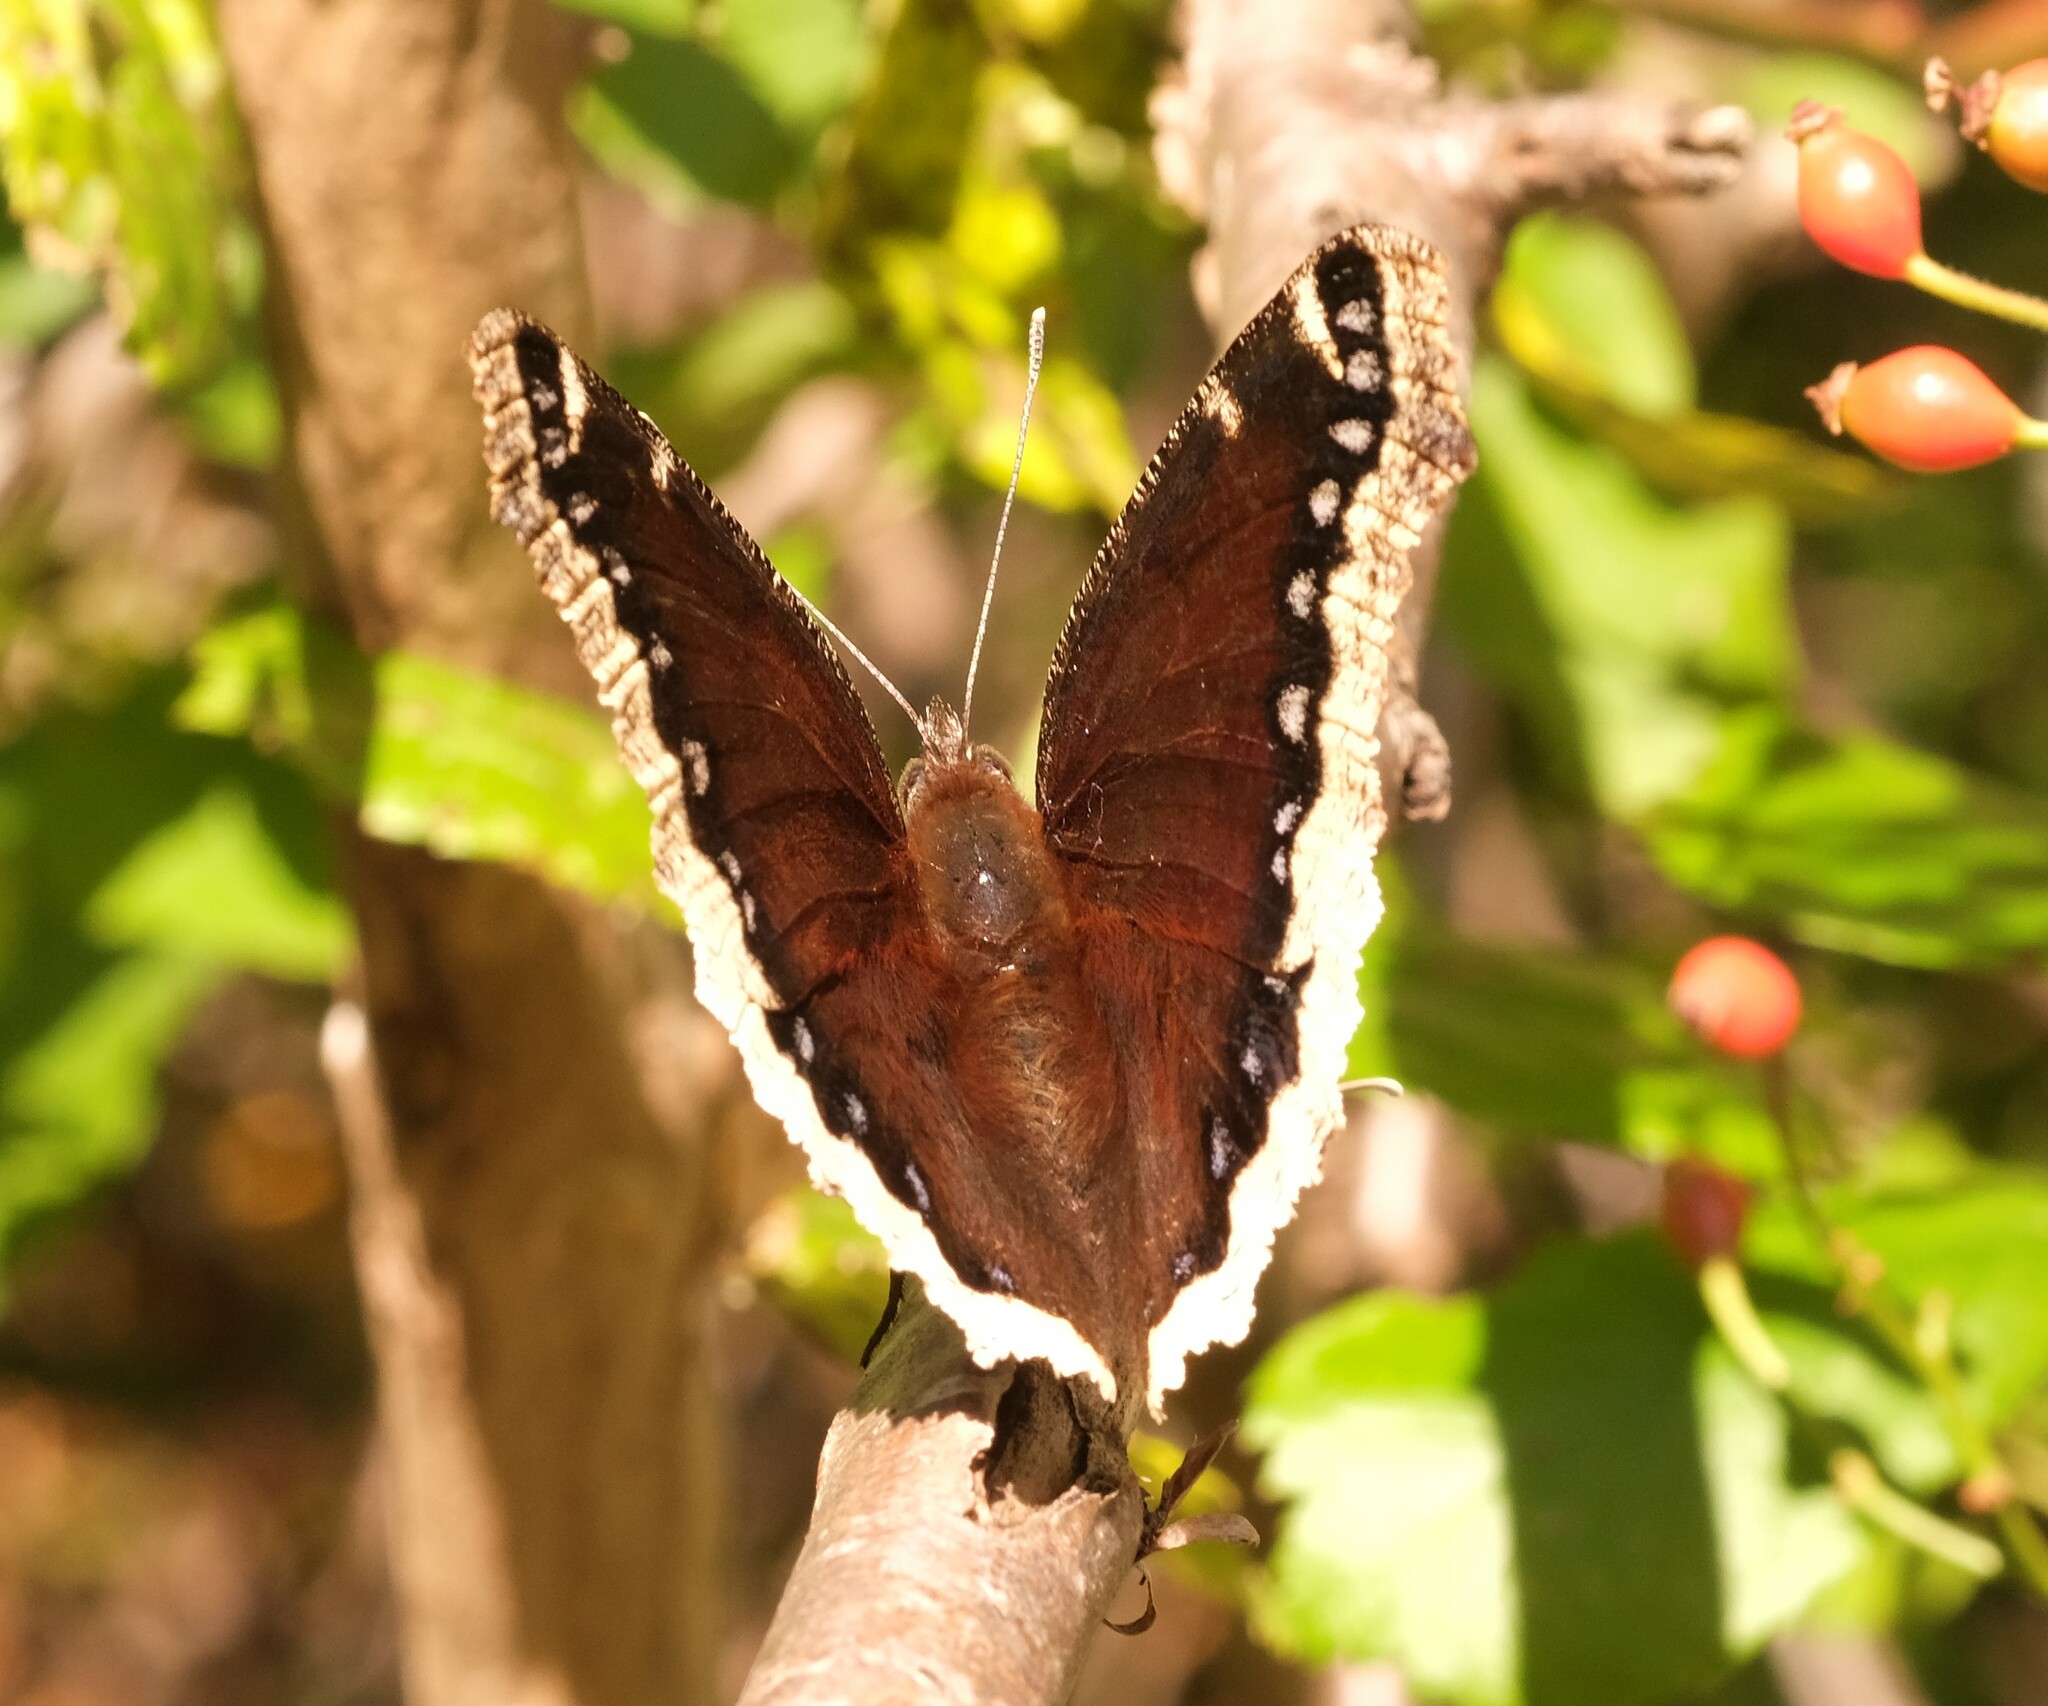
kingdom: Animalia
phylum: Arthropoda
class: Insecta
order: Lepidoptera
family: Nymphalidae
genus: Nymphalis
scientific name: Nymphalis antiopa
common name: Camberwell beauty
